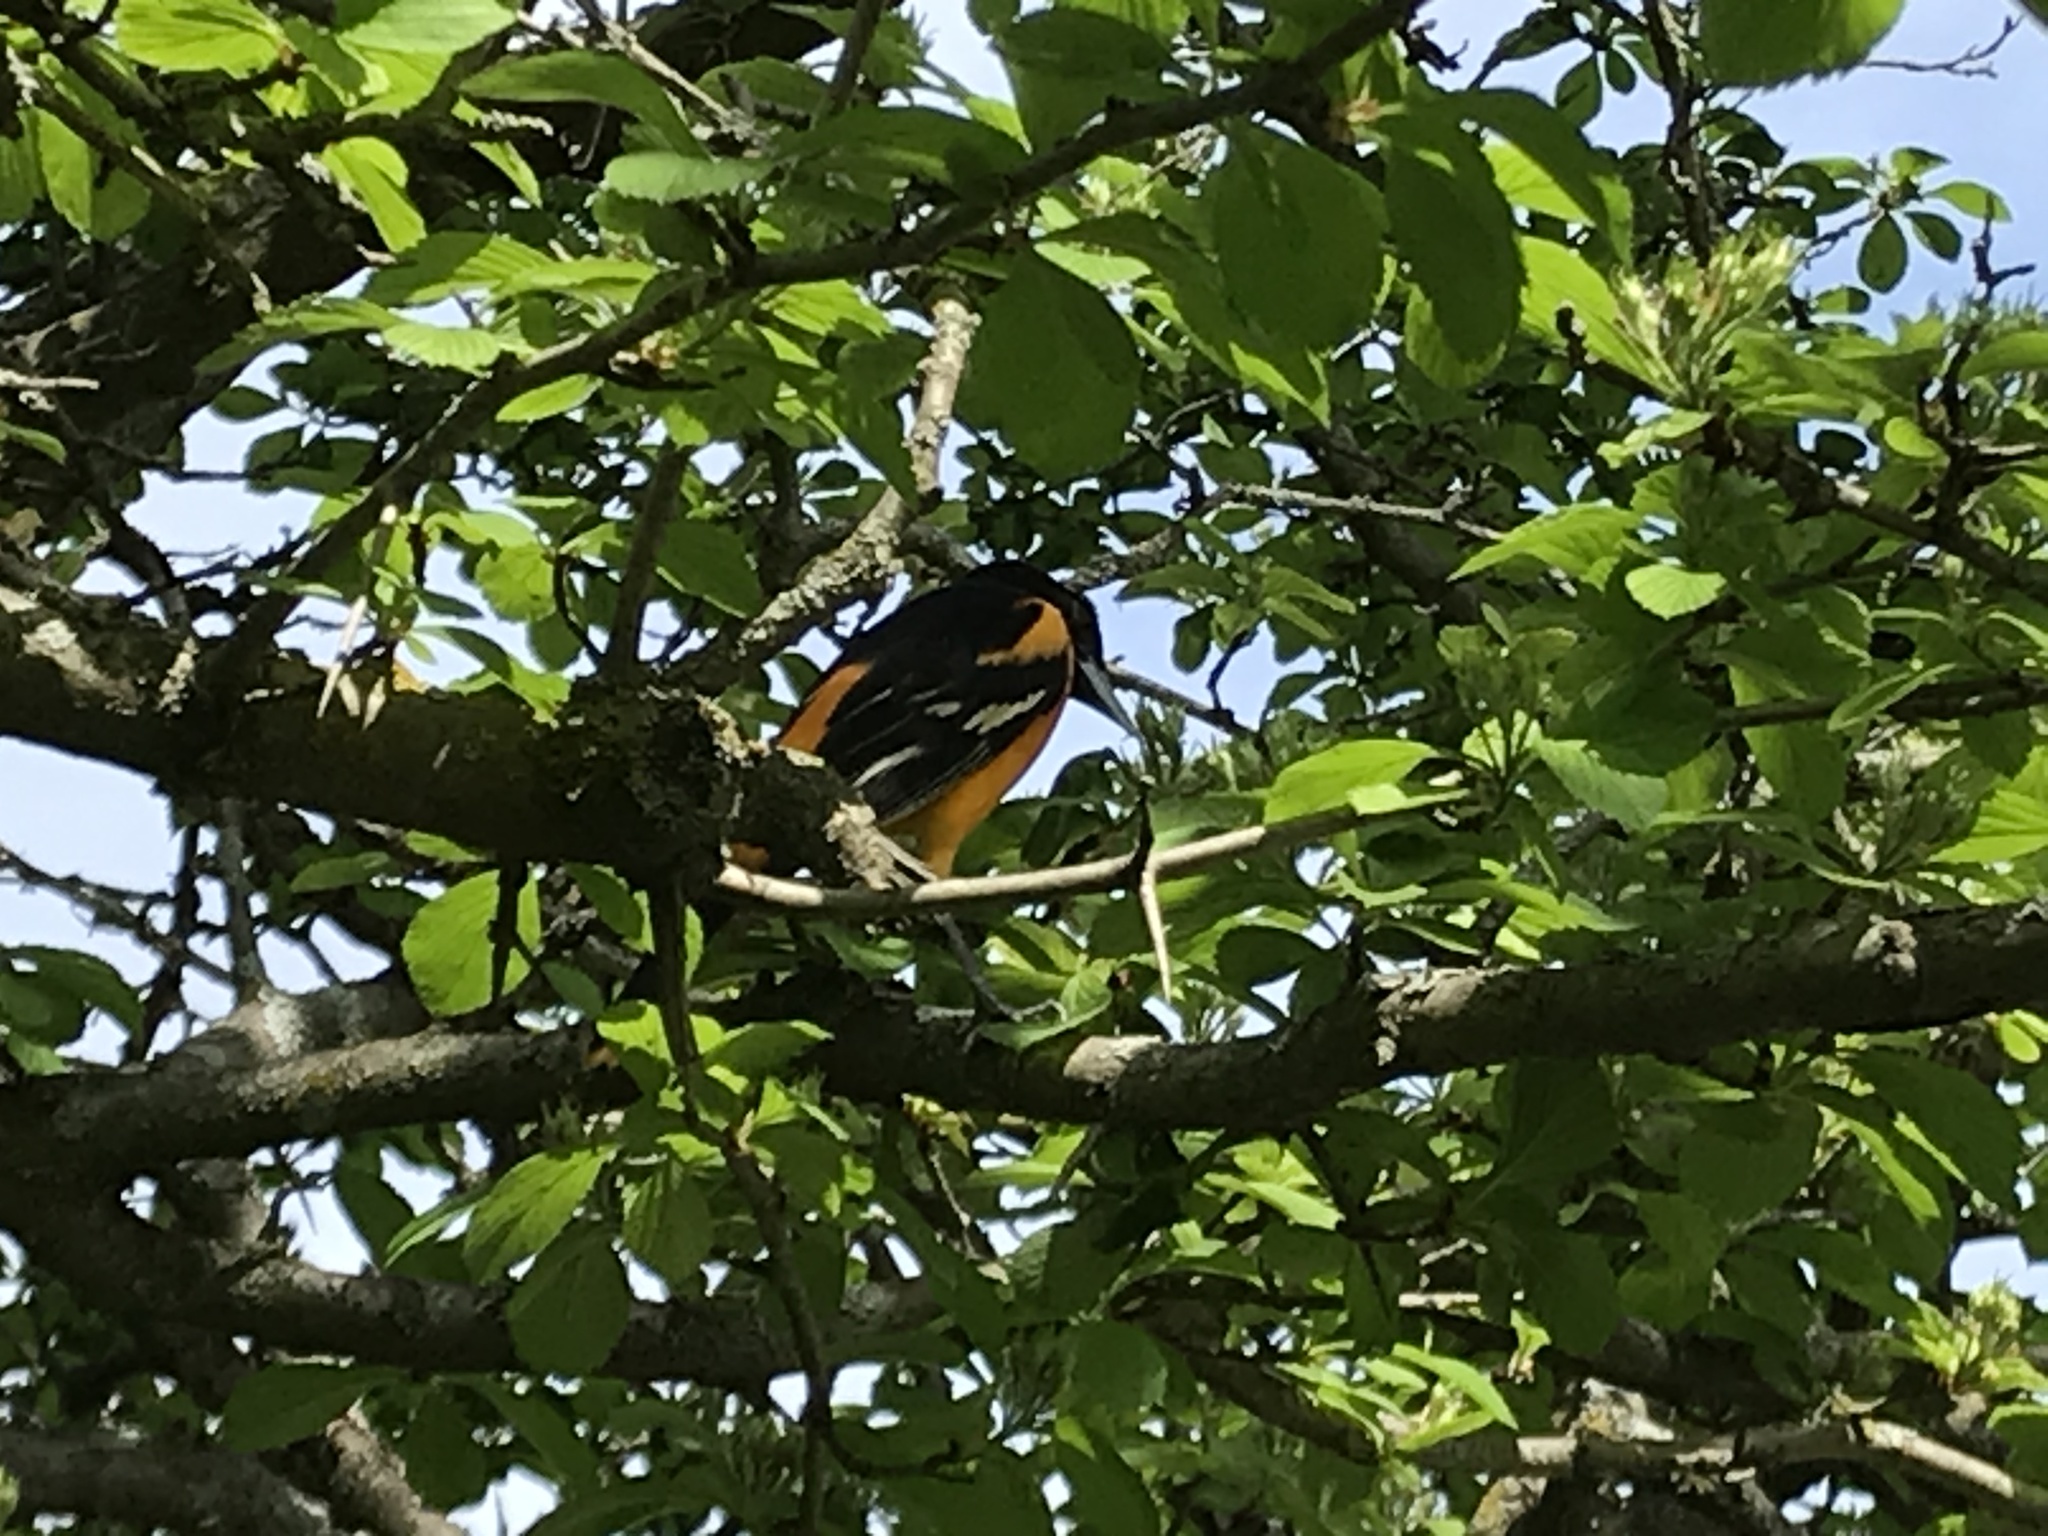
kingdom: Animalia
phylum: Chordata
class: Aves
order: Passeriformes
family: Icteridae
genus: Icterus
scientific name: Icterus galbula
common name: Baltimore oriole
